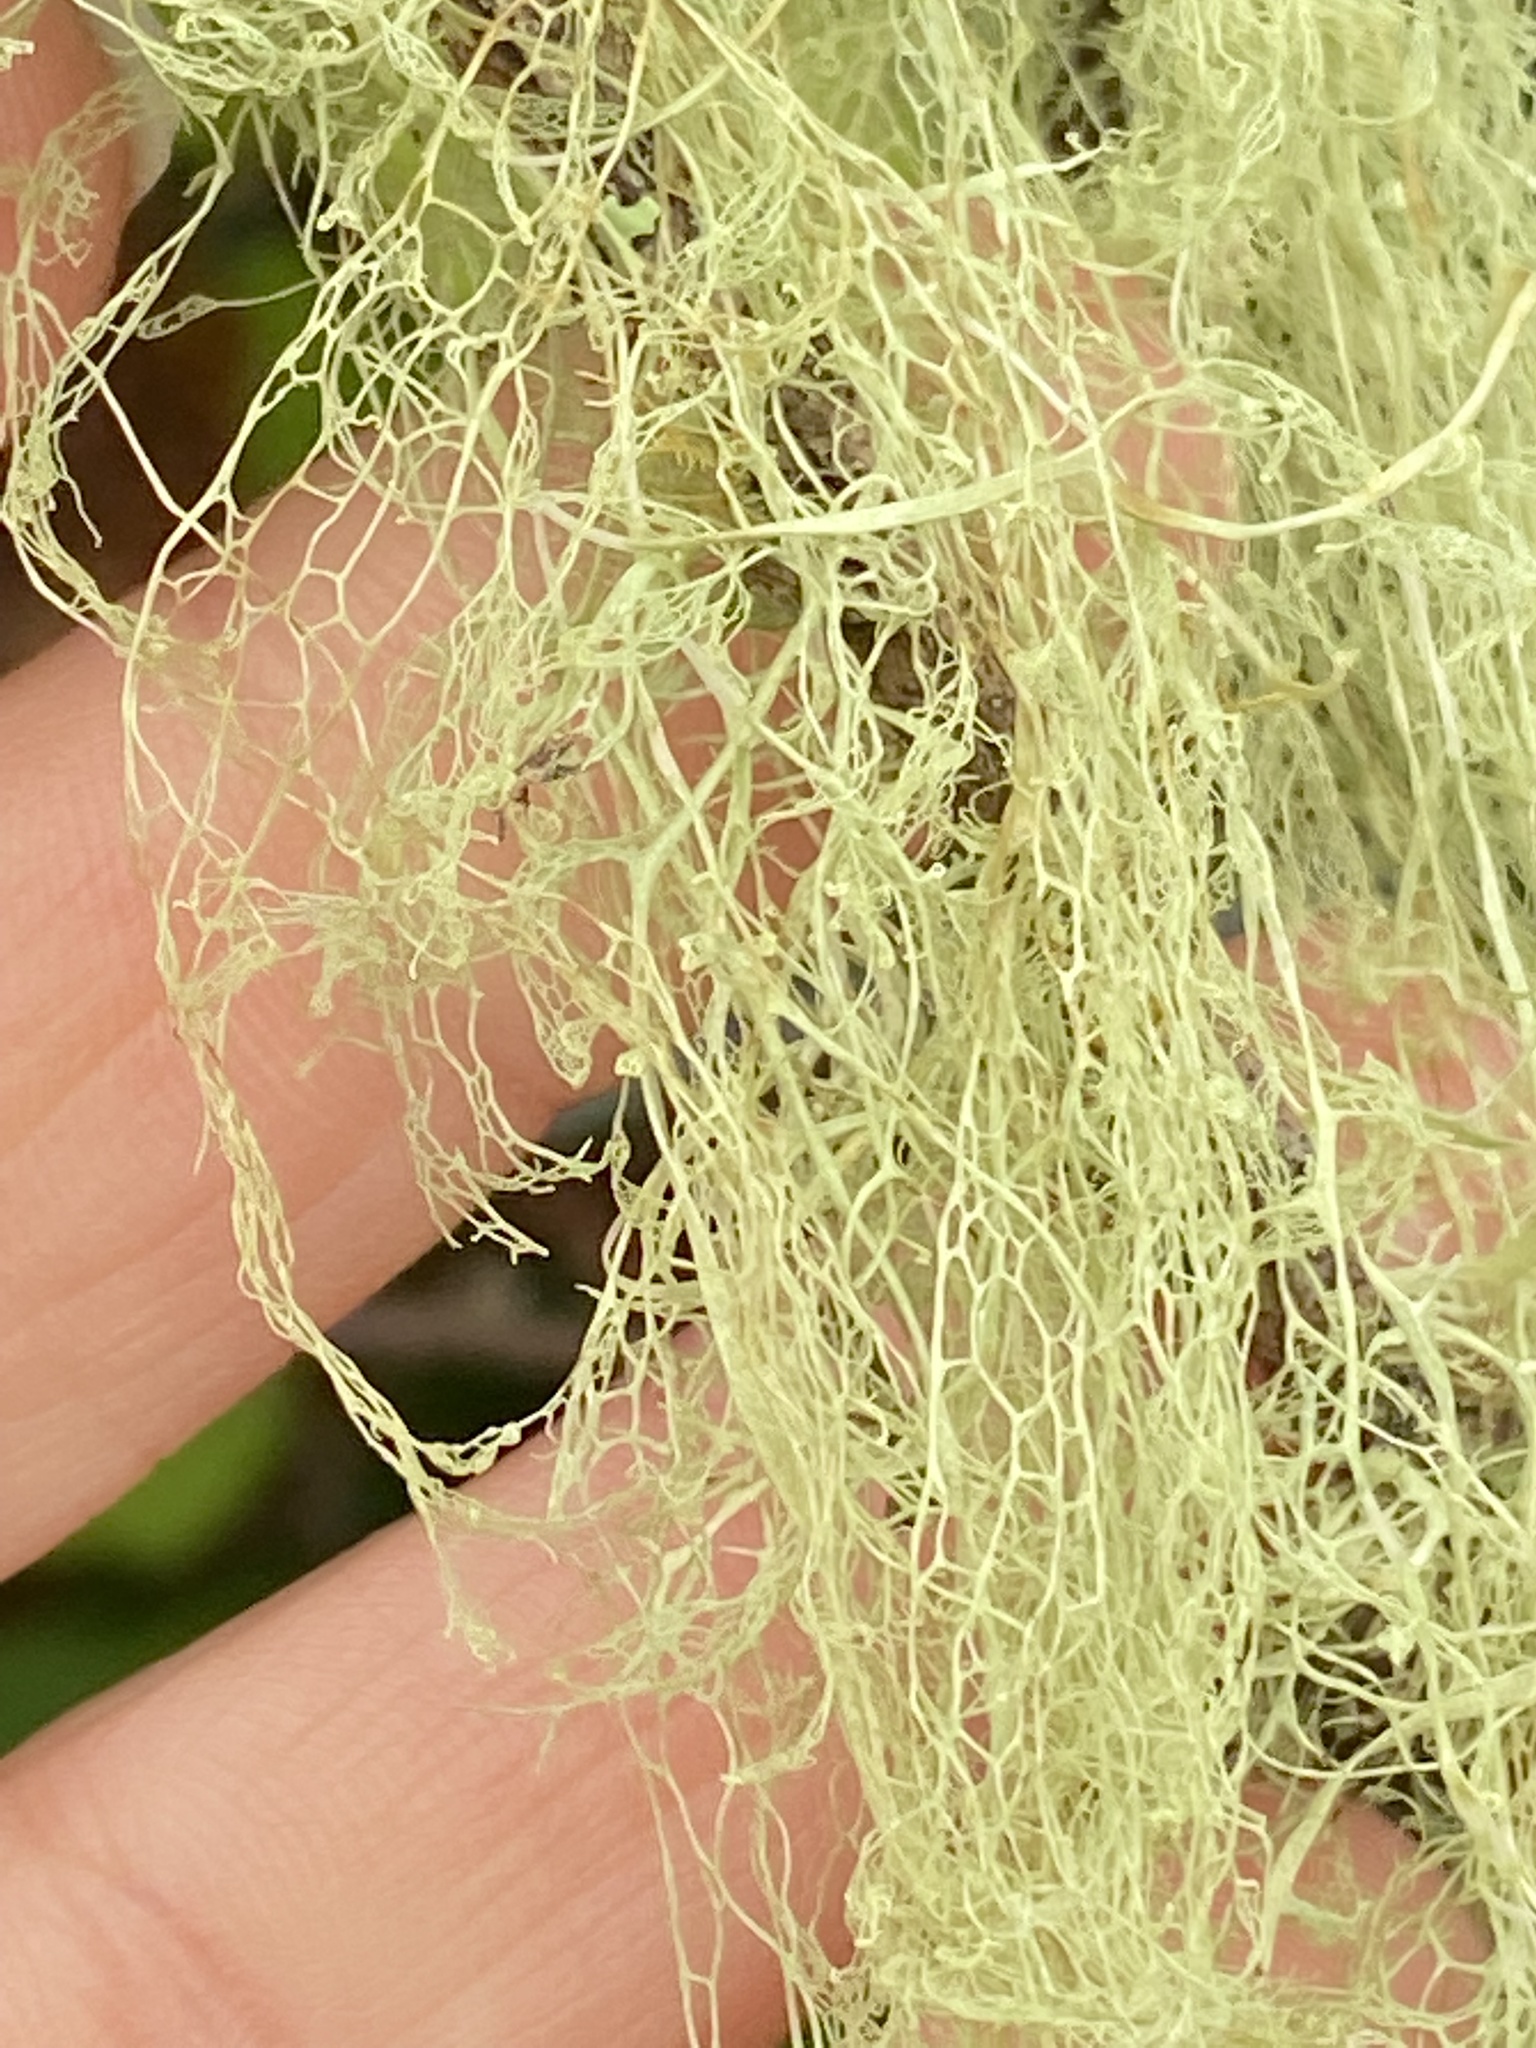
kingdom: Fungi
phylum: Ascomycota
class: Lecanoromycetes
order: Lecanorales
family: Ramalinaceae
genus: Ramalina
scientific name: Ramalina menziesii
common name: Lace lichen
